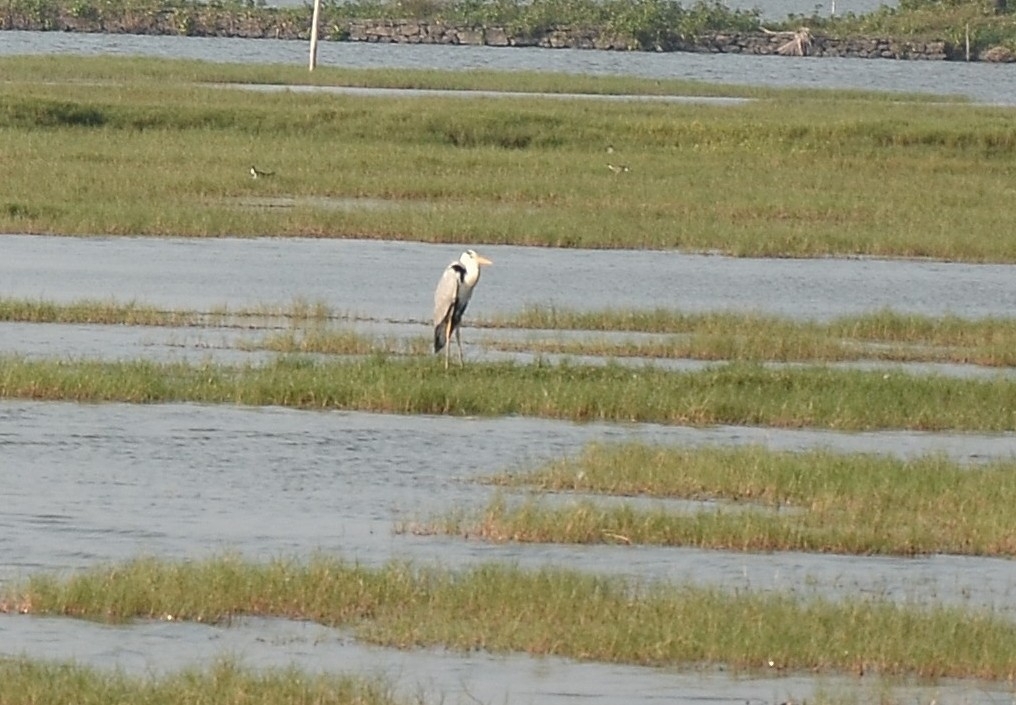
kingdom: Animalia
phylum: Chordata
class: Aves
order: Pelecaniformes
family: Ardeidae
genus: Ardea
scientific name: Ardea cinerea
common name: Grey heron
